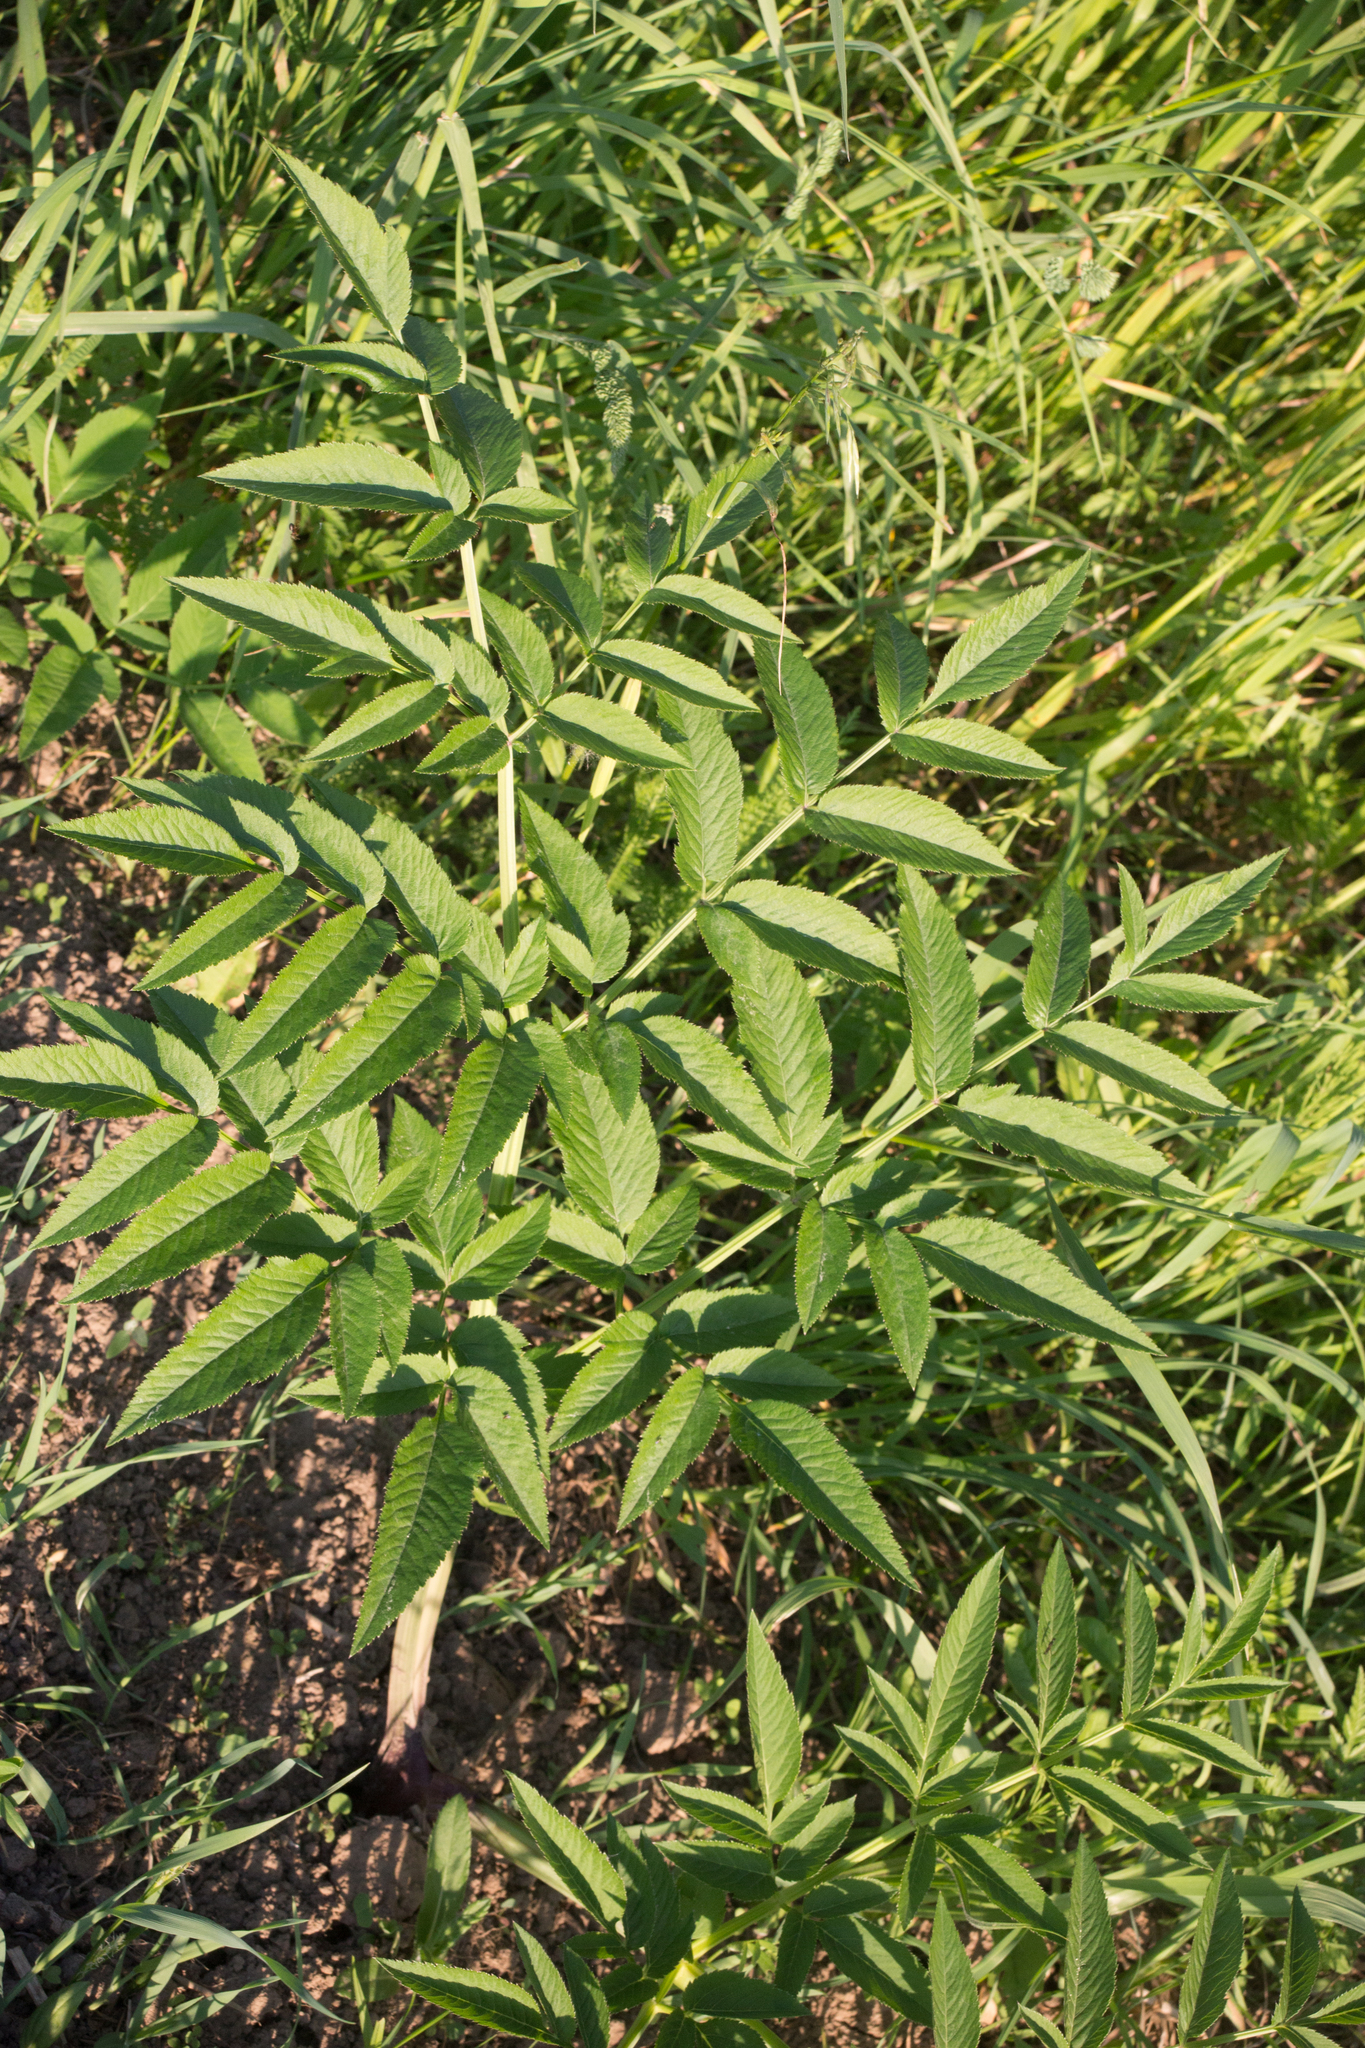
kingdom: Plantae
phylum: Tracheophyta
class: Magnoliopsida
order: Apiales
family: Apiaceae
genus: Angelica
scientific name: Angelica sylvestris
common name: Wild angelica
